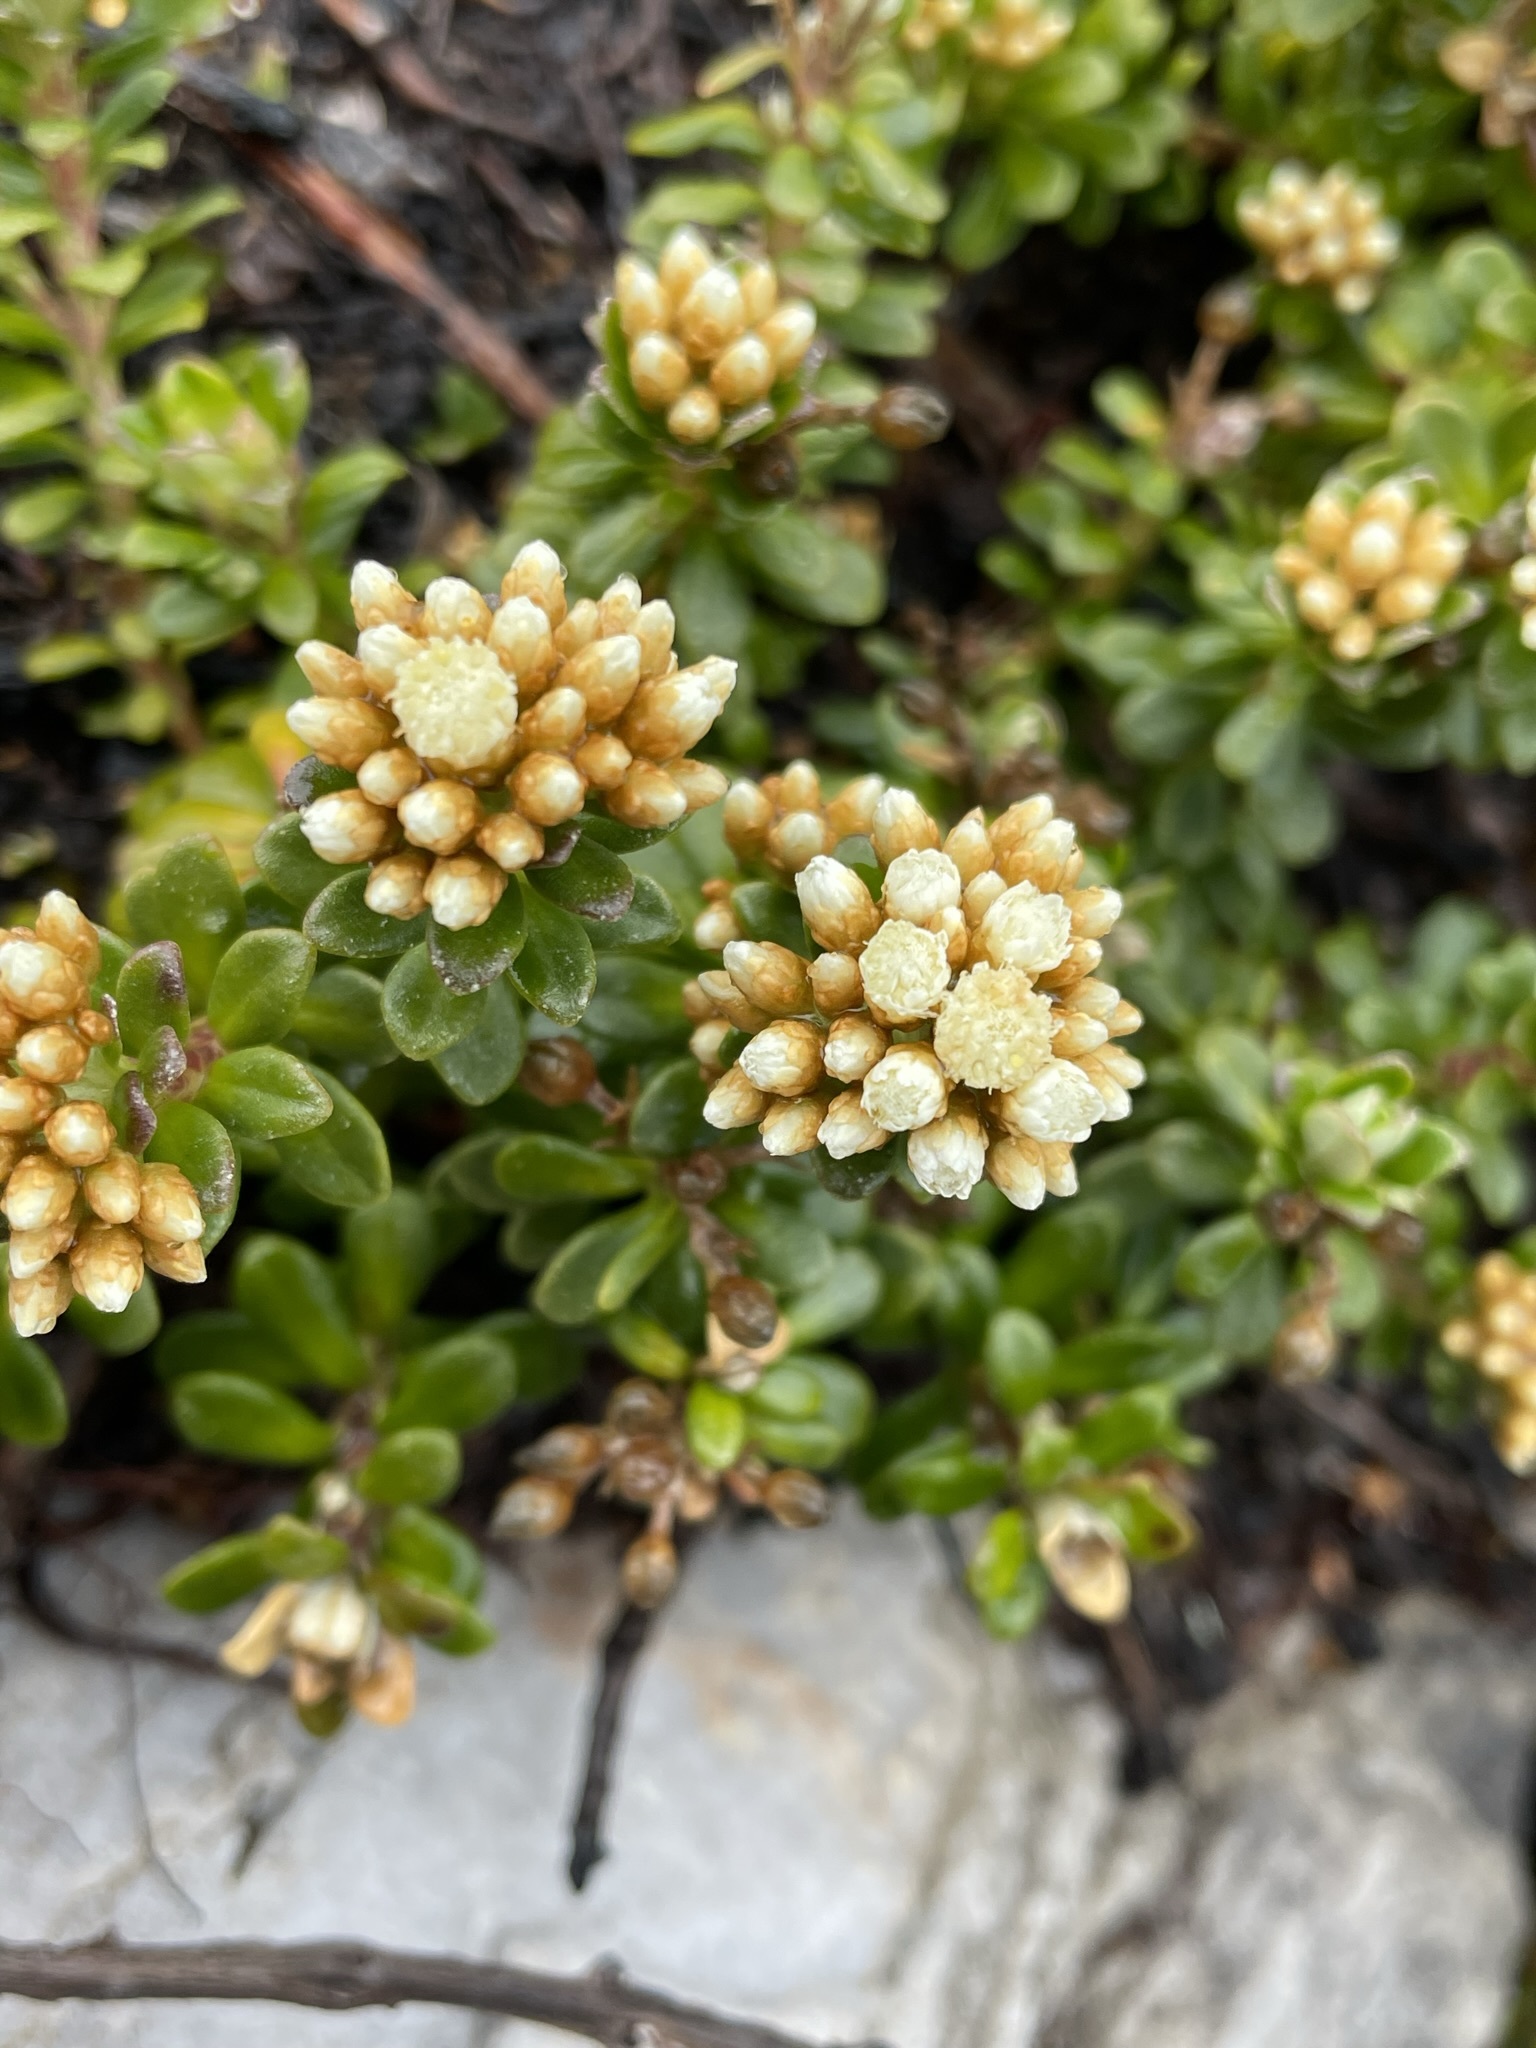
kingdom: Plantae
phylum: Tracheophyta
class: Magnoliopsida
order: Asterales
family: Asteraceae
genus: Ozothamnus
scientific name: Ozothamnus rodwayi
